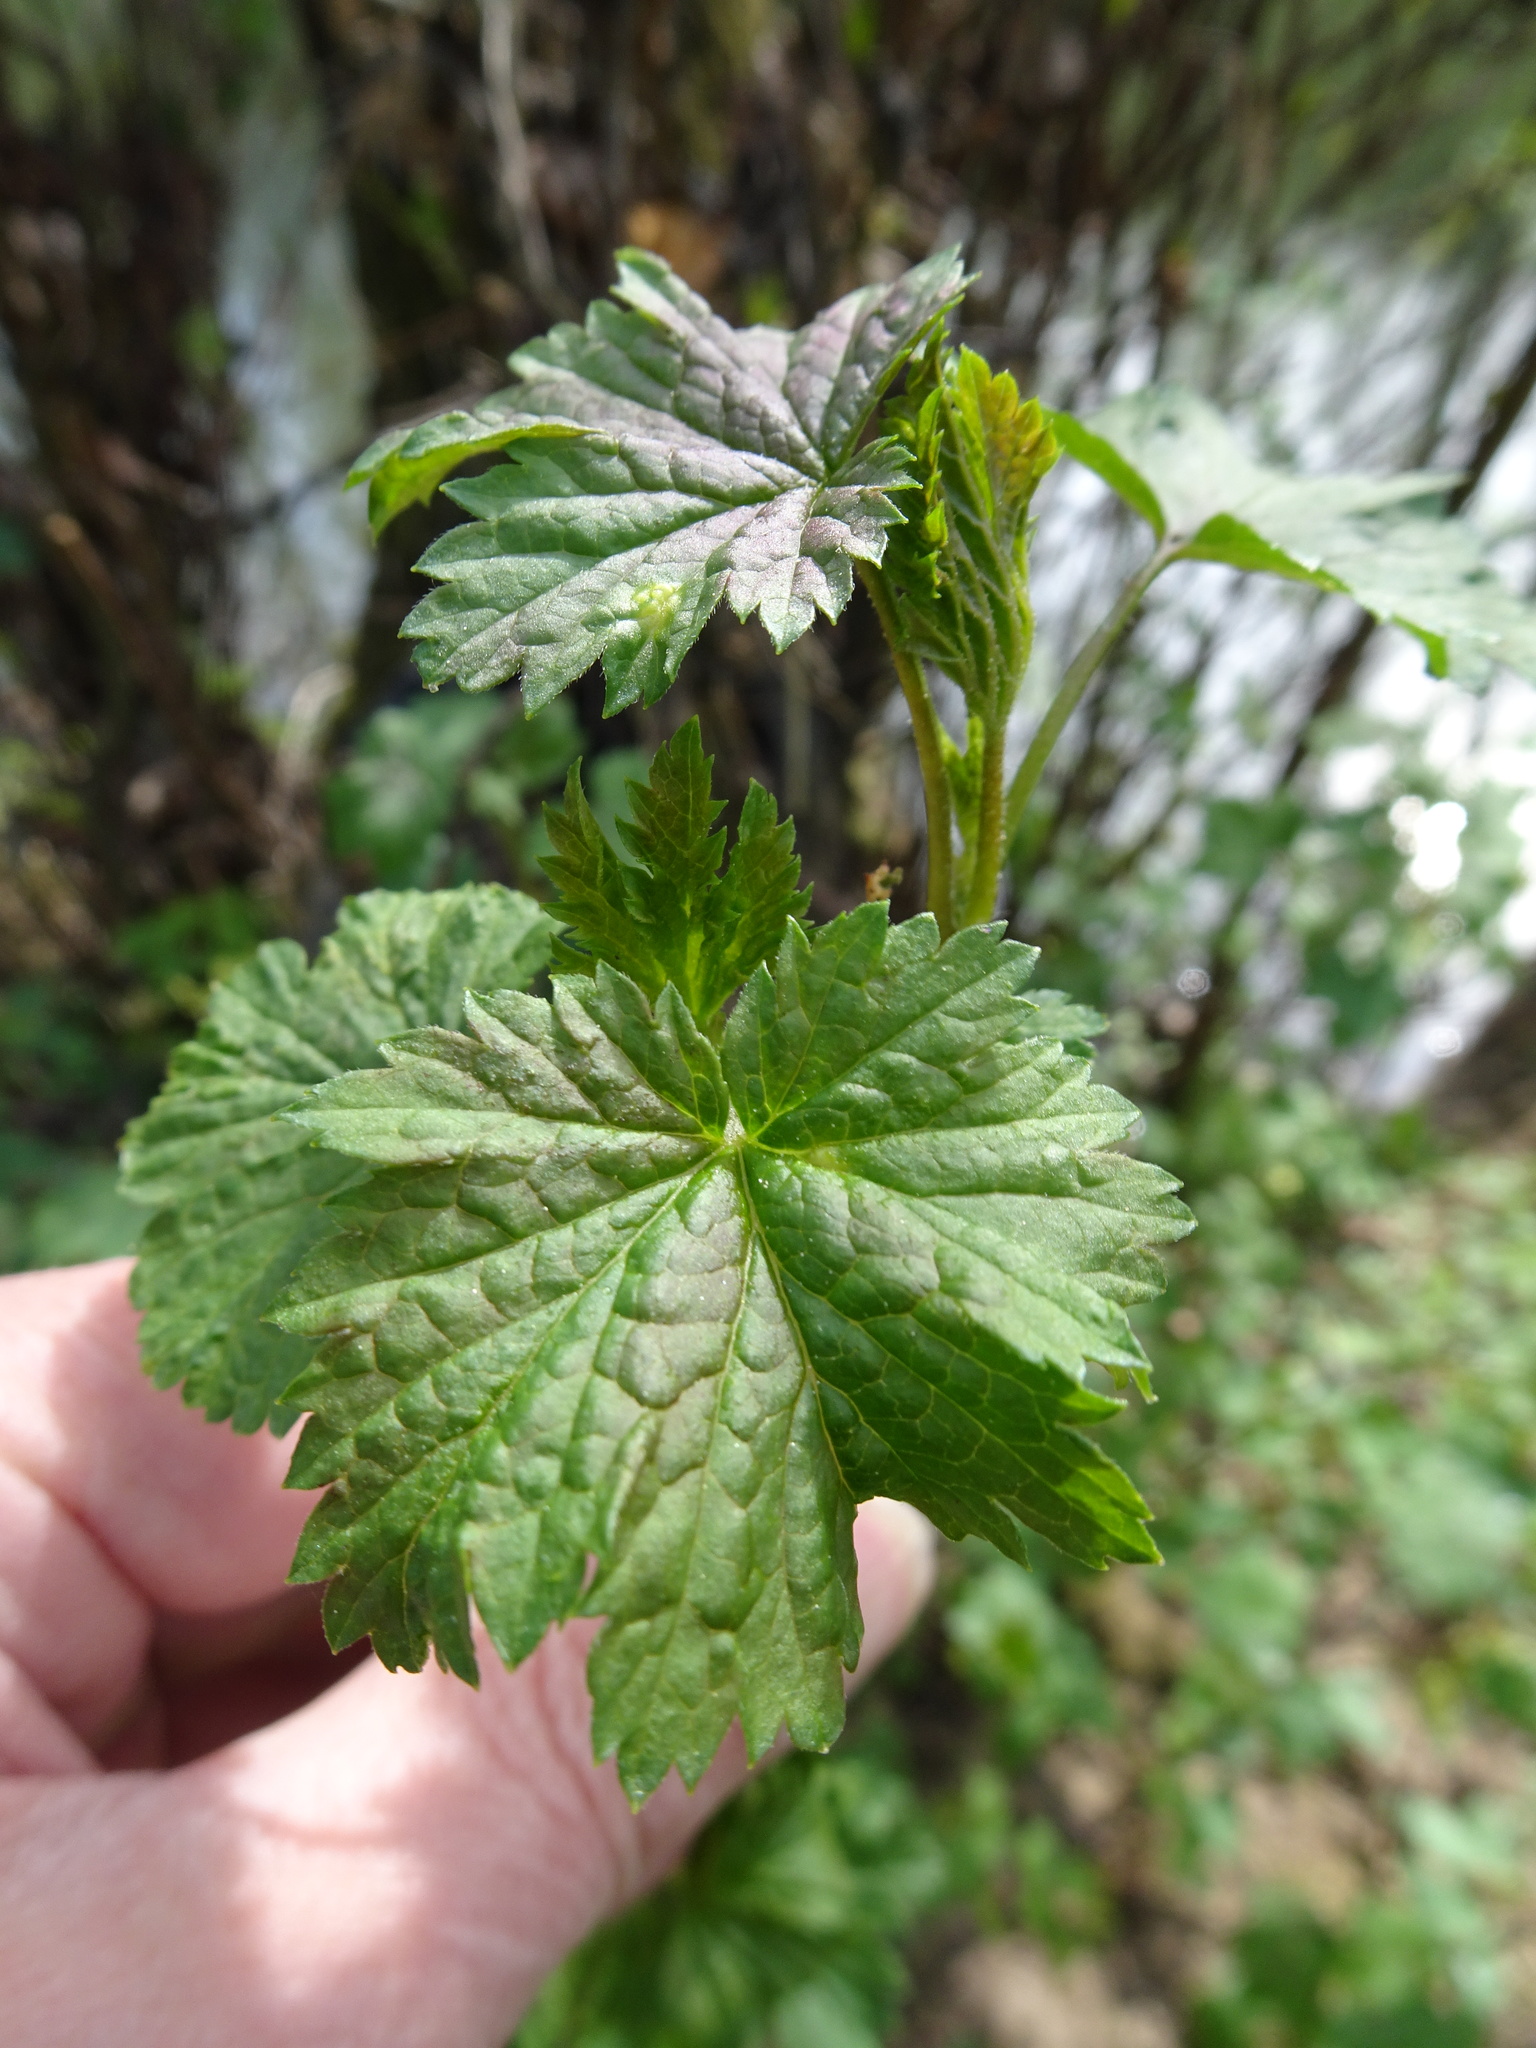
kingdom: Plantae
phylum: Tracheophyta
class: Magnoliopsida
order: Saxifragales
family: Grossulariaceae
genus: Ribes
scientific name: Ribes rubrum
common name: Red currant
